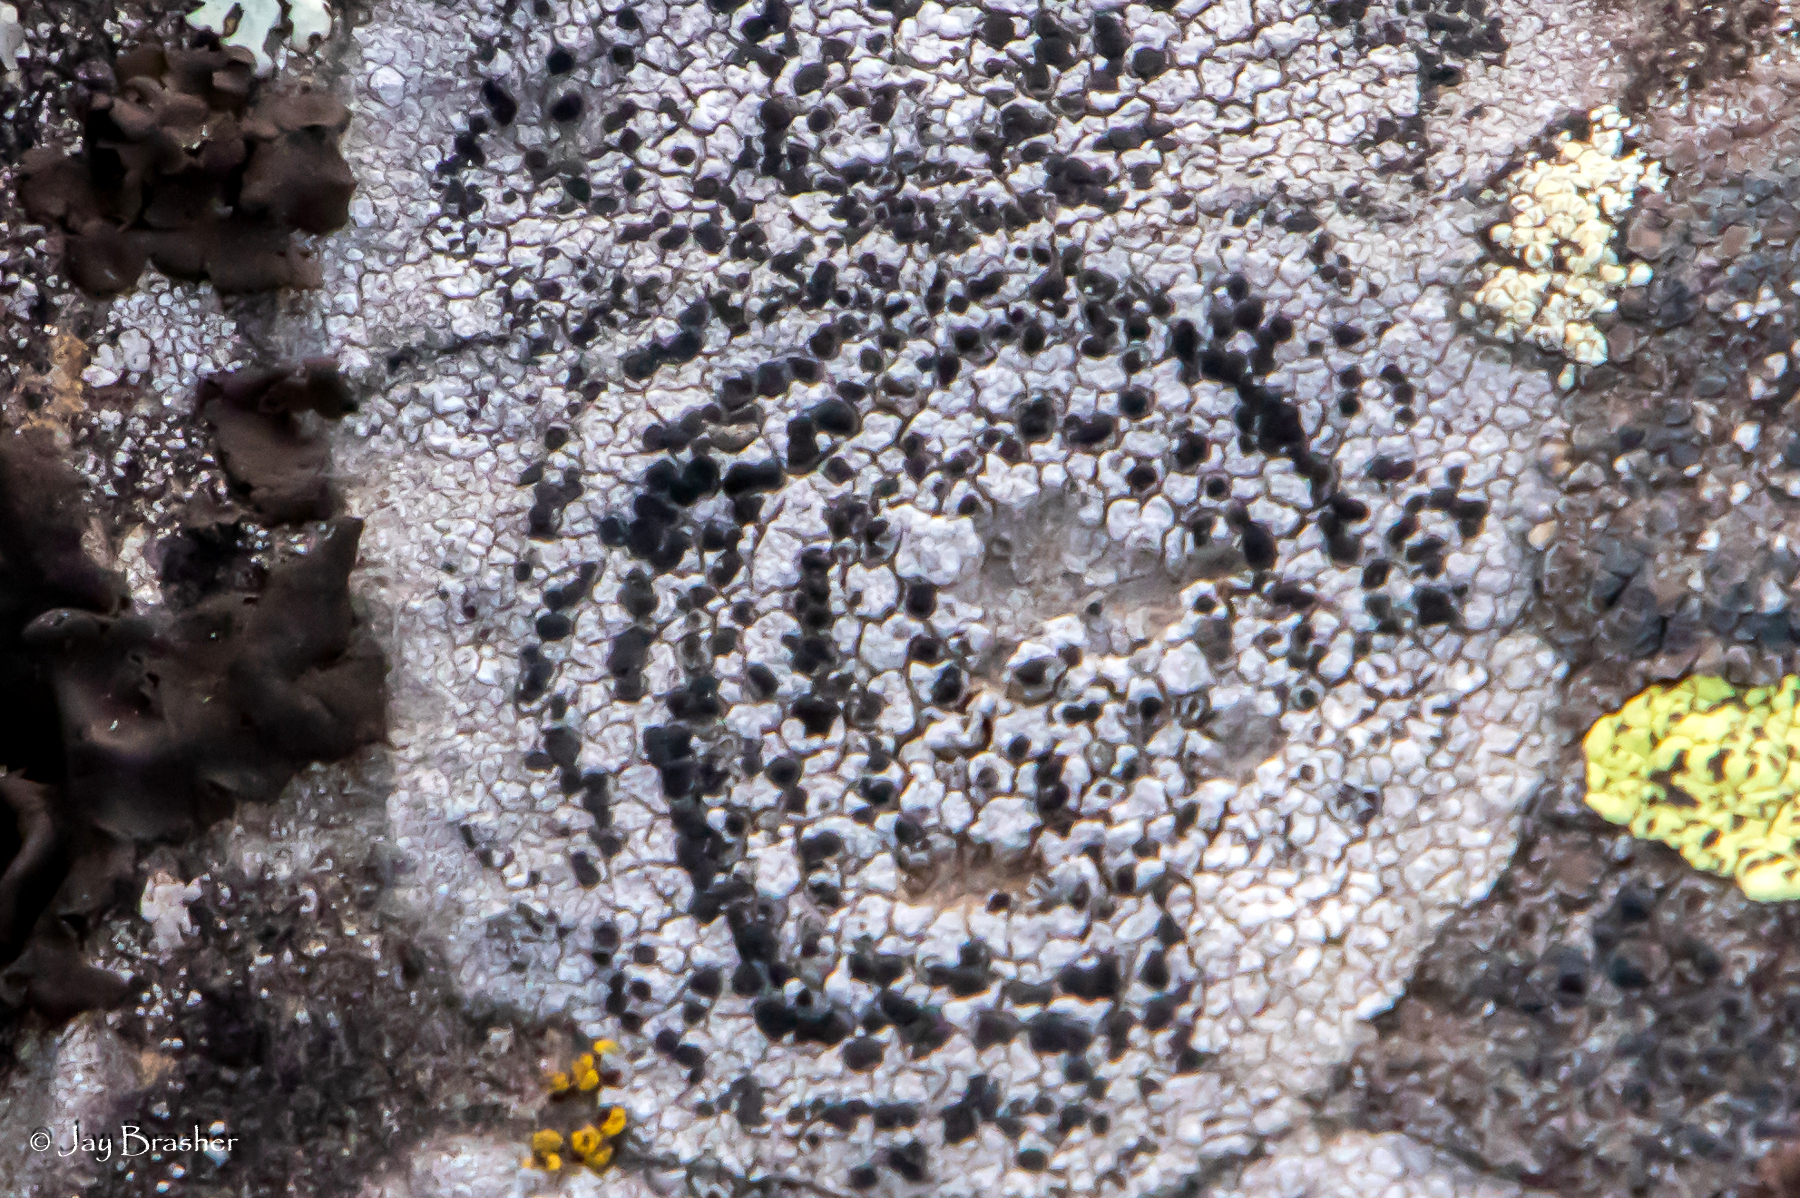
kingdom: Fungi
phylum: Ascomycota
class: Lecanoromycetes
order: Lecideales
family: Lecideaceae
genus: Porpidia
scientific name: Porpidia crustulata
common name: Concentric boulder lichen
